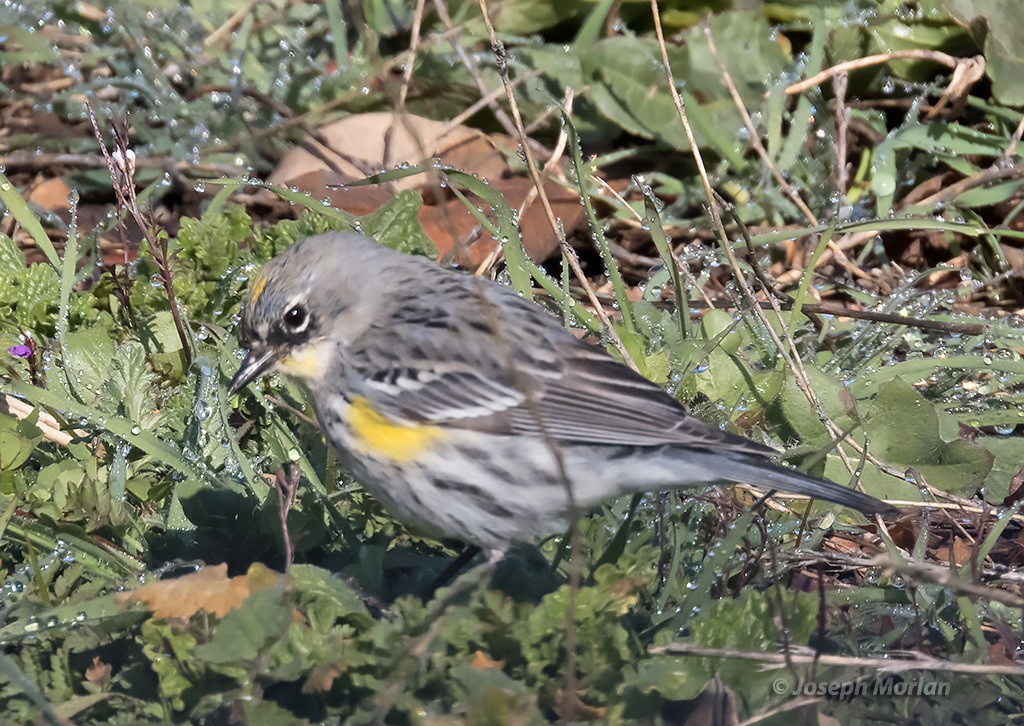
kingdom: Animalia
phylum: Chordata
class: Aves
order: Passeriformes
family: Parulidae
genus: Setophaga
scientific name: Setophaga coronata
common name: Myrtle warbler
